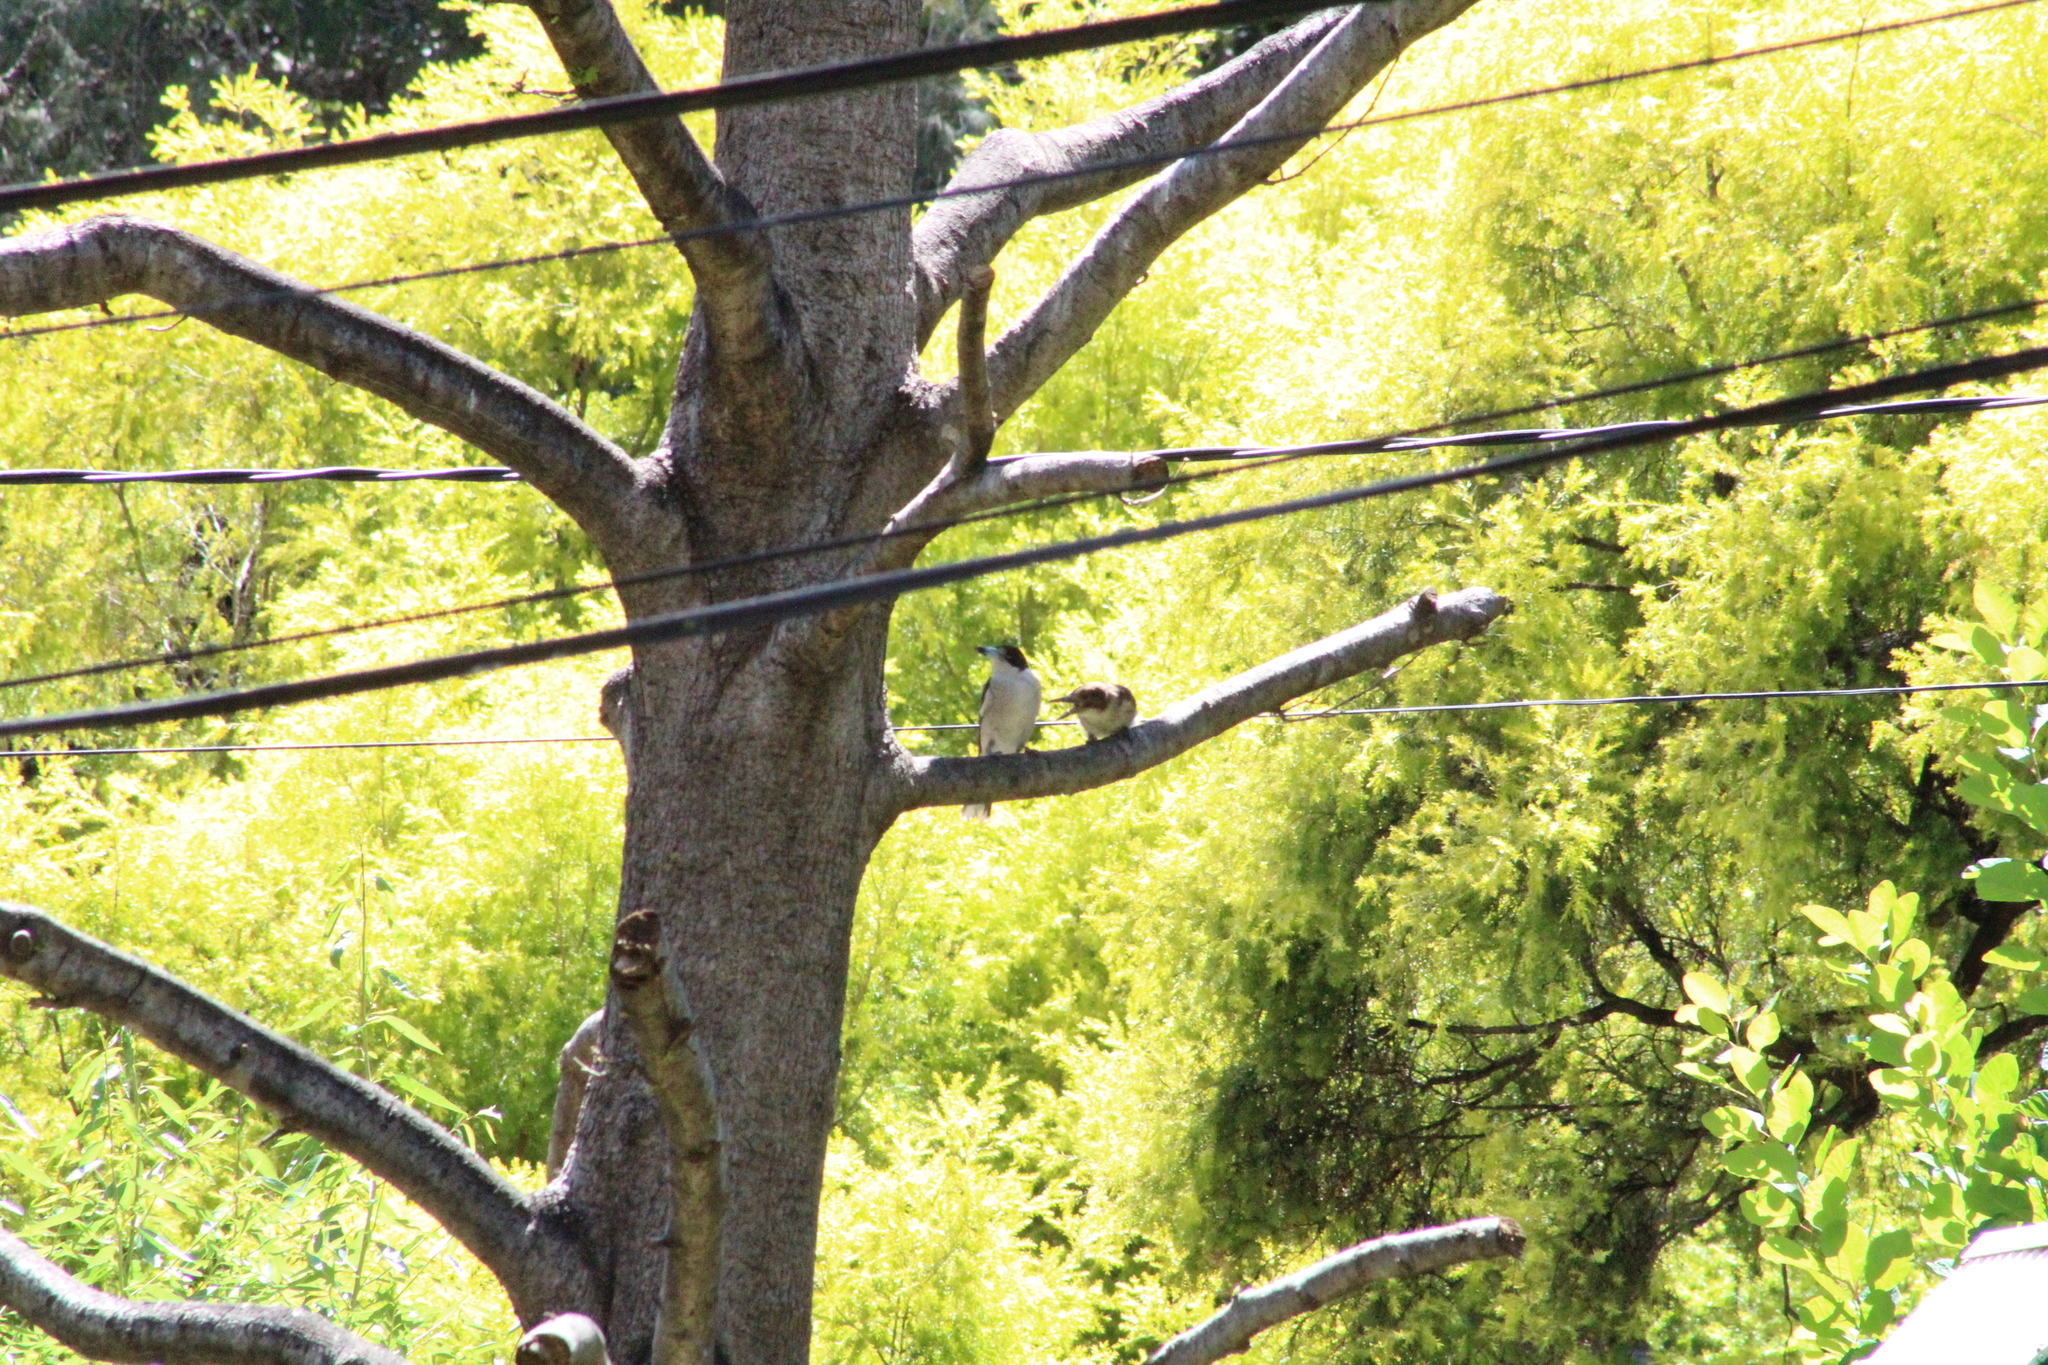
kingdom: Animalia
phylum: Chordata
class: Aves
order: Passeriformes
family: Cracticidae
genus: Cracticus
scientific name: Cracticus torquatus
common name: Grey butcherbird
